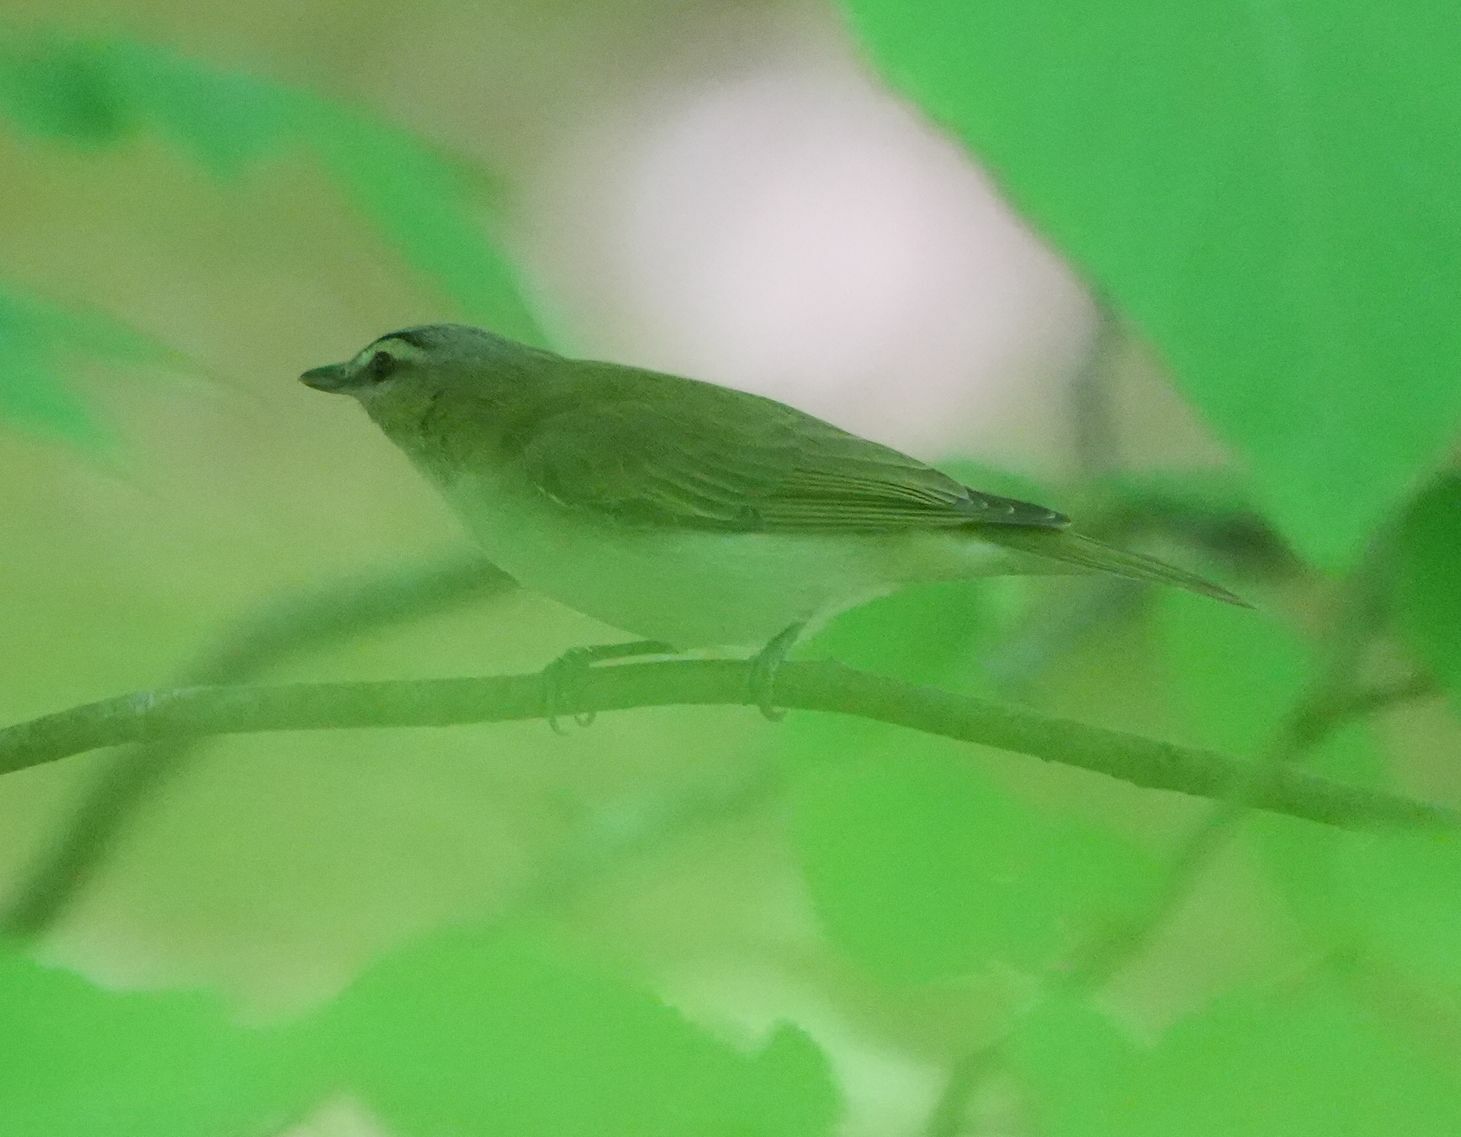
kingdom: Animalia
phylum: Chordata
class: Aves
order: Passeriformes
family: Vireonidae
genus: Vireo
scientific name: Vireo olivaceus
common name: Red-eyed vireo
